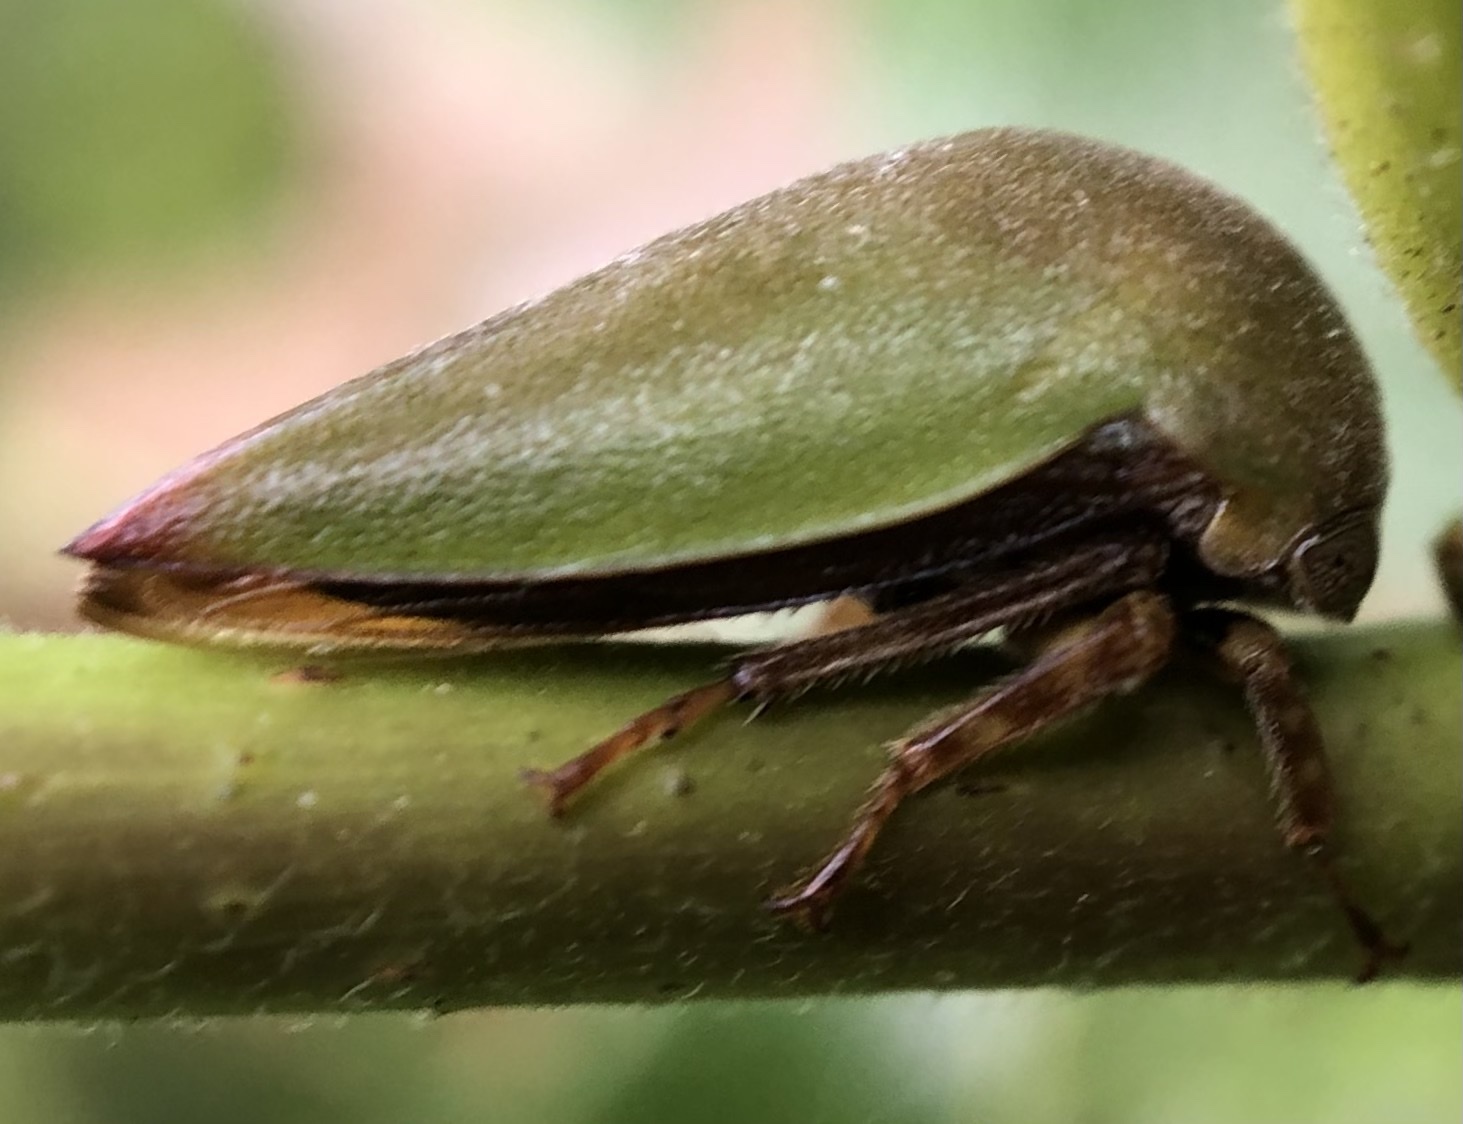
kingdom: Animalia
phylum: Arthropoda
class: Insecta
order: Hemiptera
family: Membracidae
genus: Hebetica
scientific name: Hebetica
